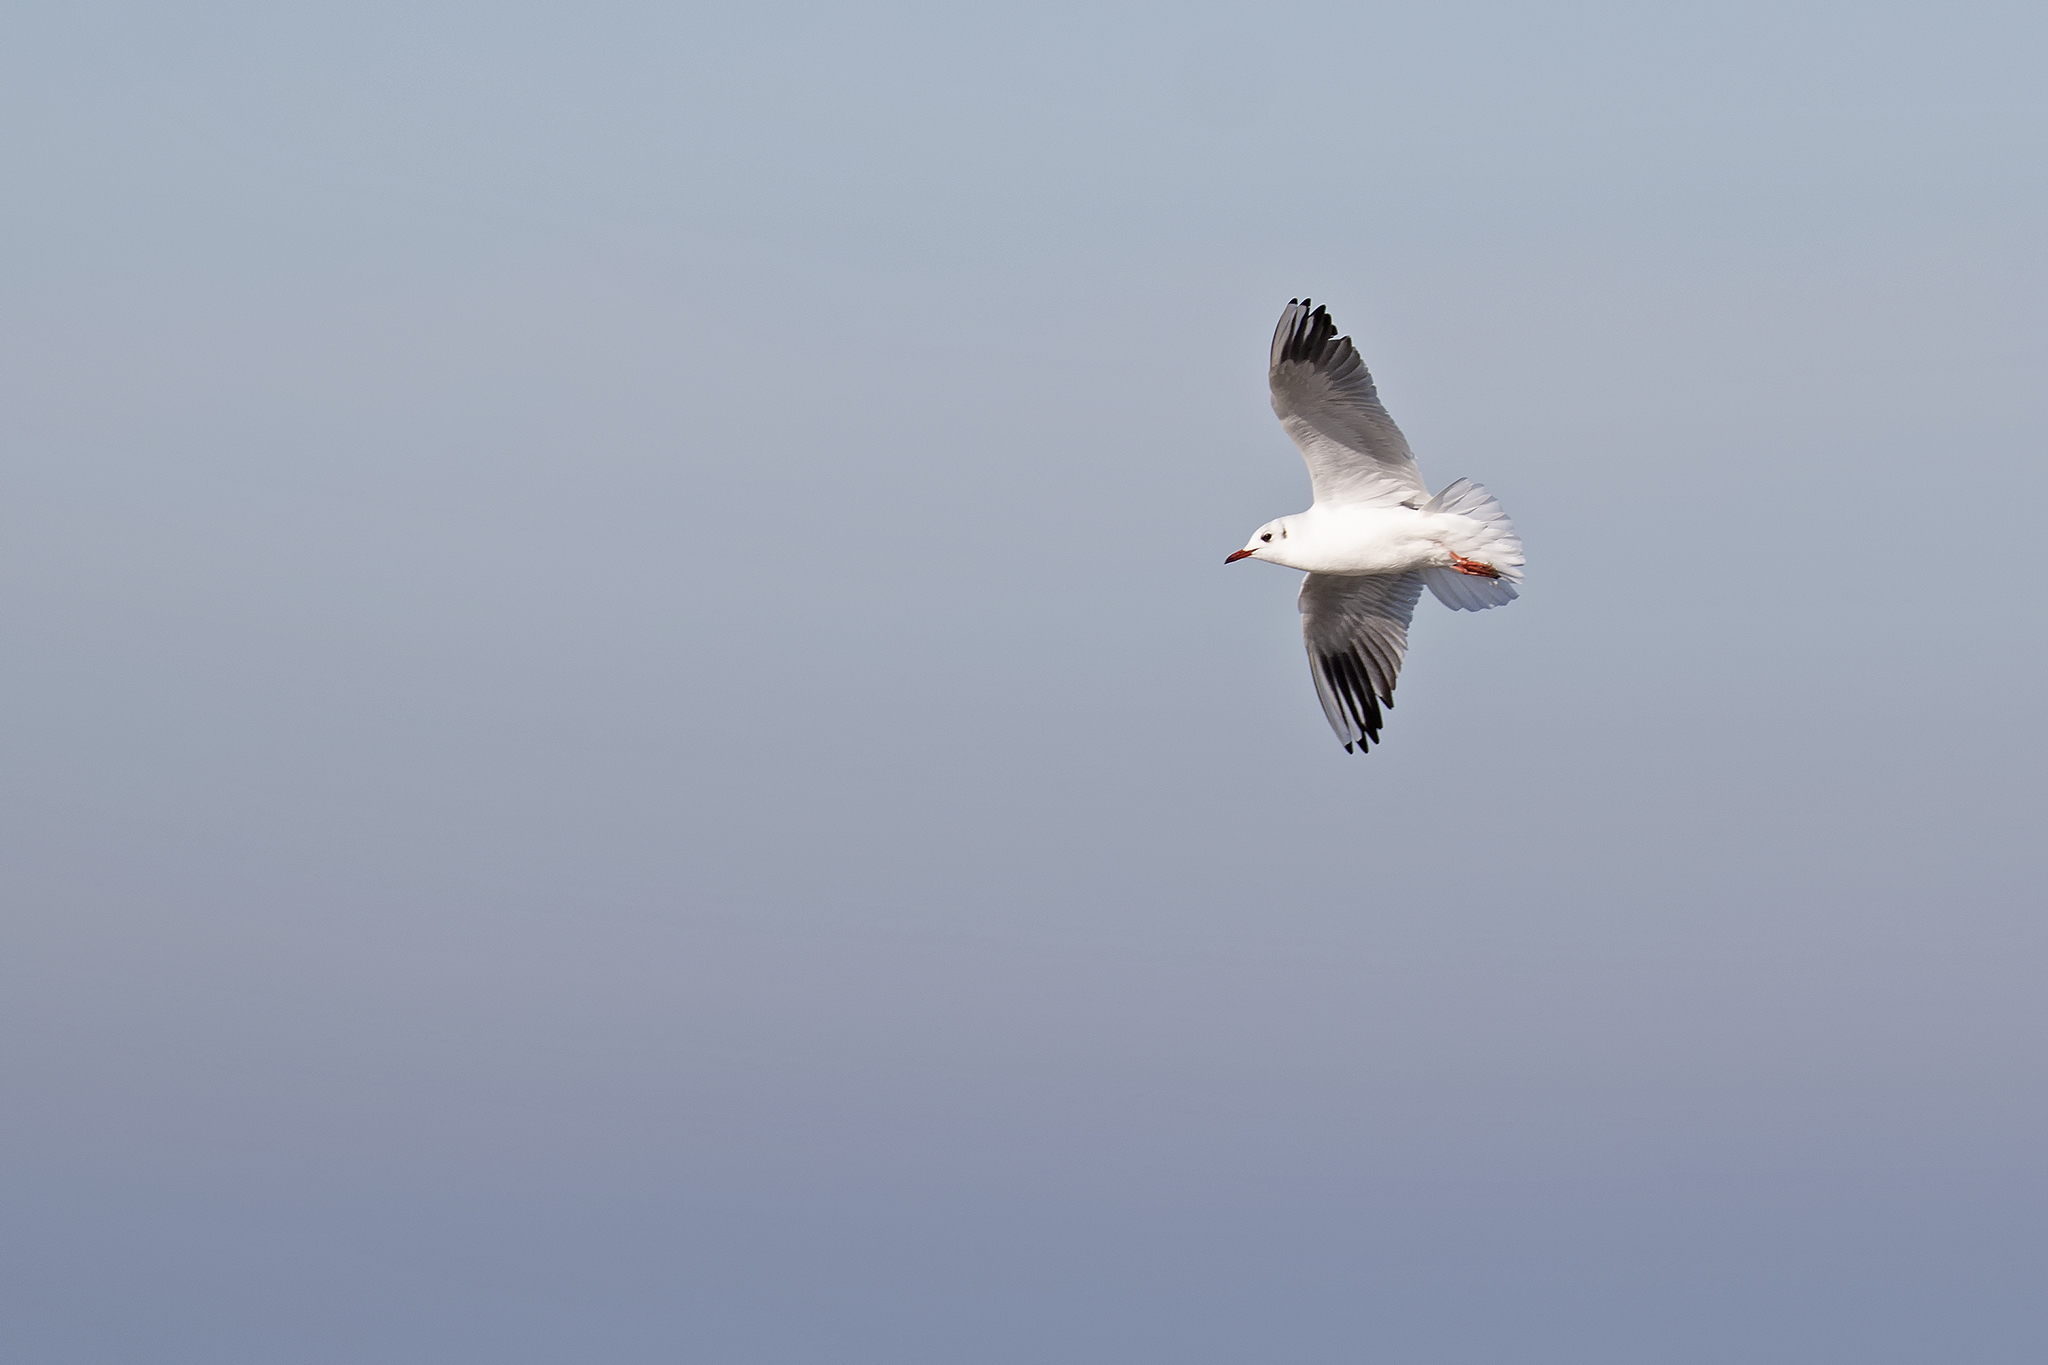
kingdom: Animalia
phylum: Chordata
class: Aves
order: Charadriiformes
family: Laridae
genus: Chroicocephalus
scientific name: Chroicocephalus ridibundus
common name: Black-headed gull
